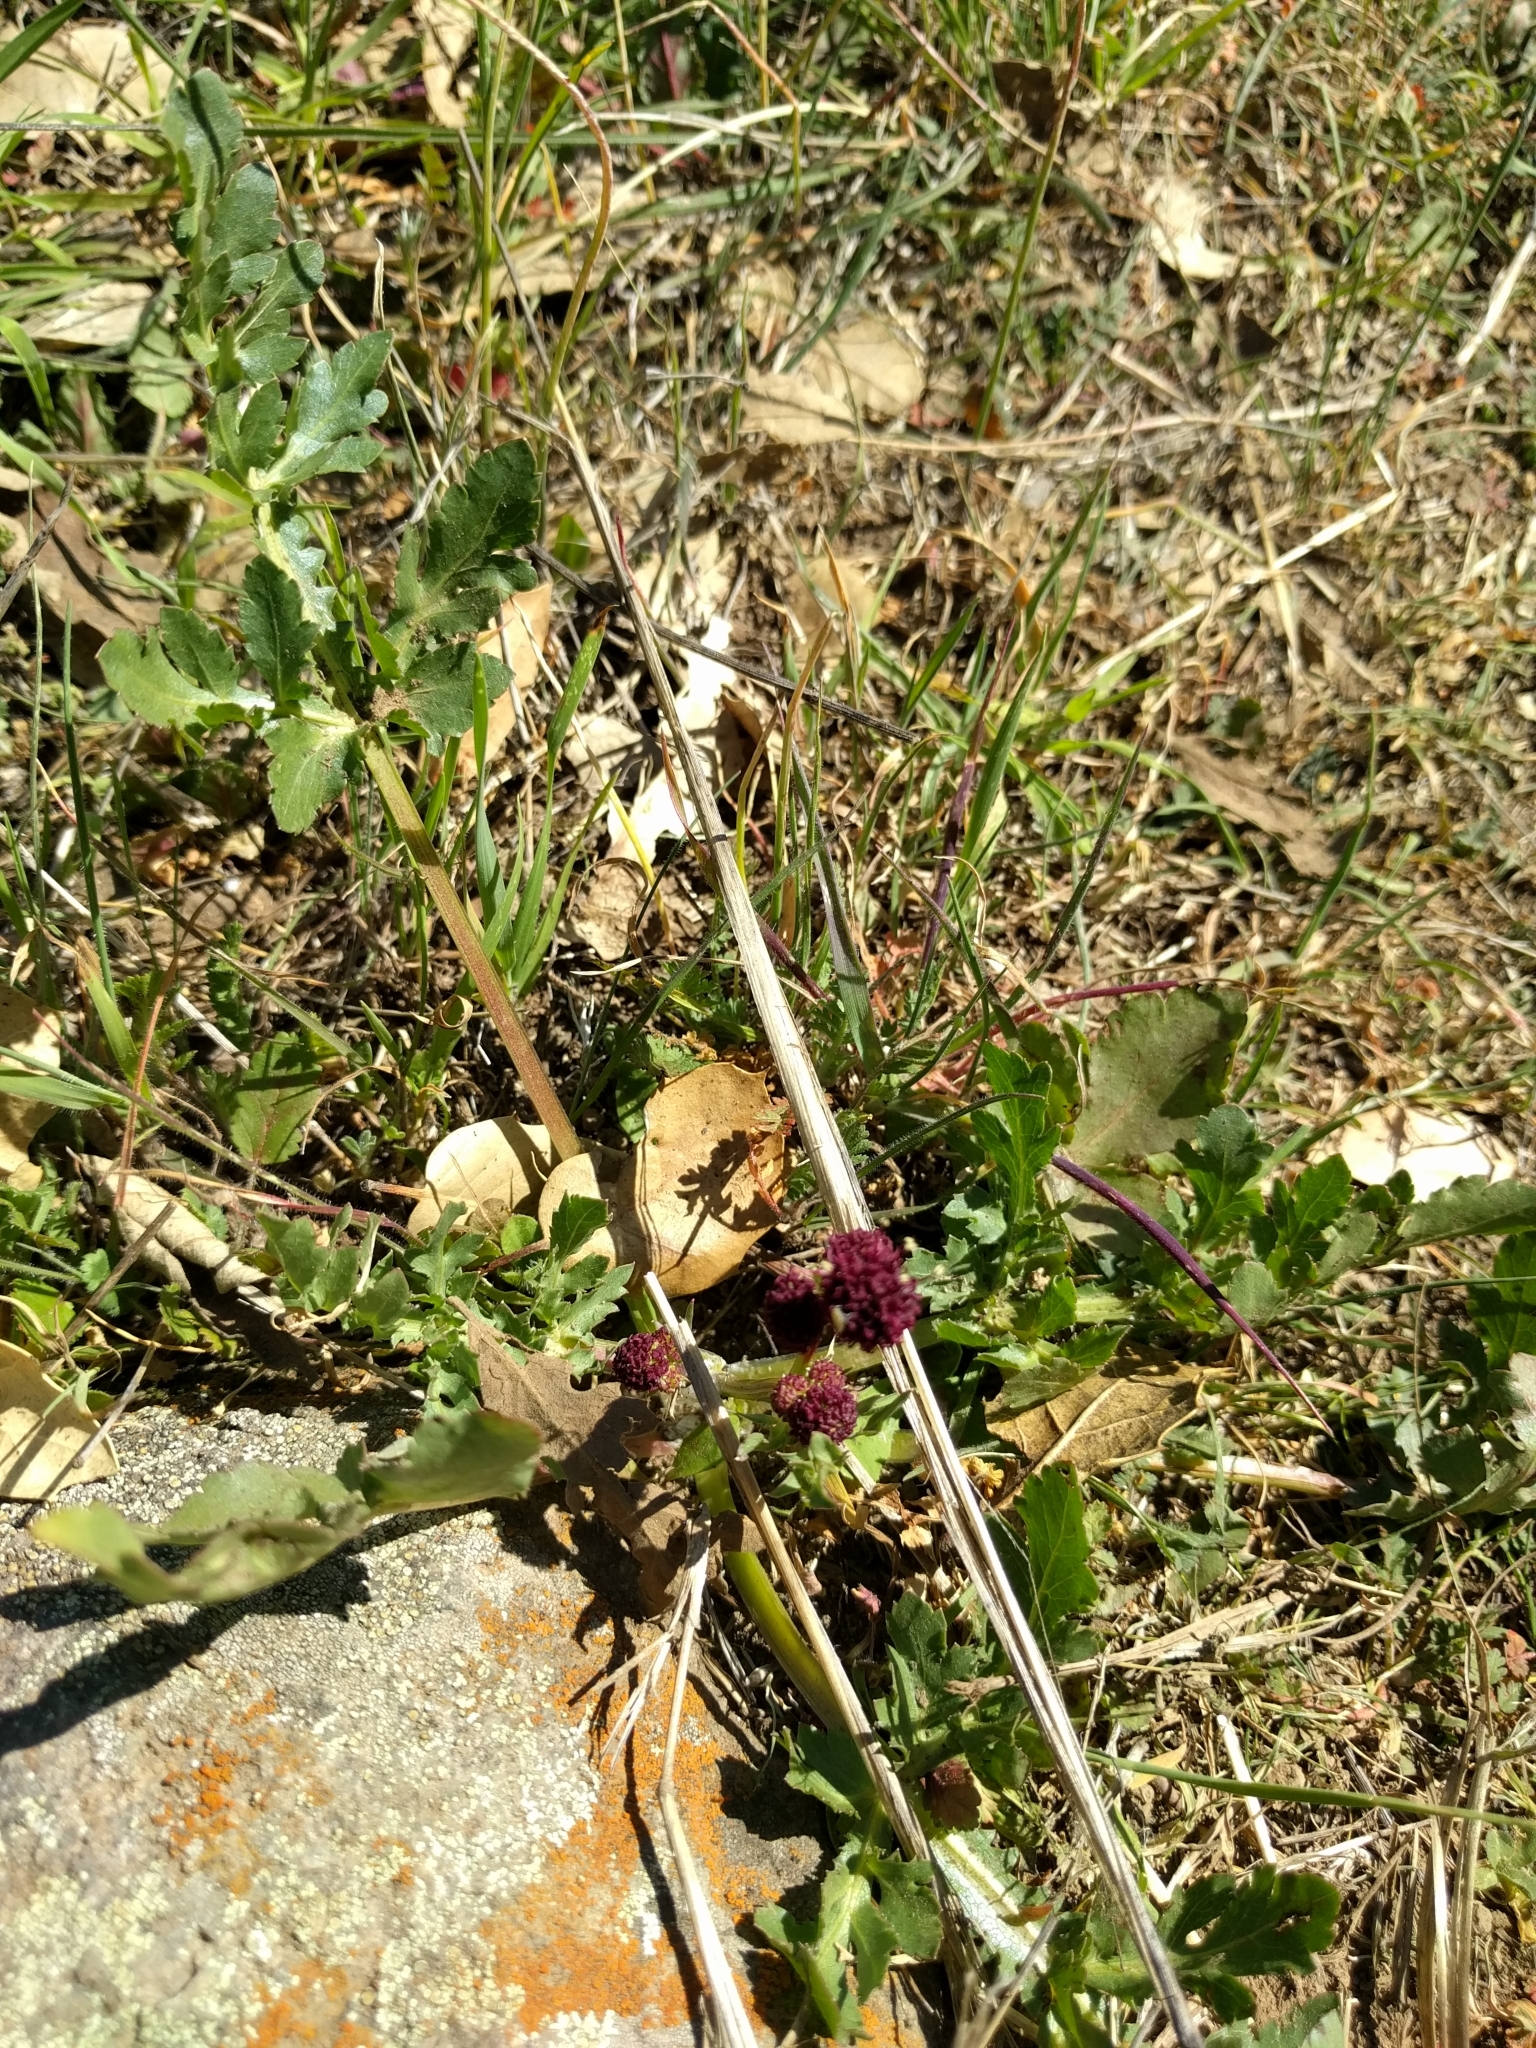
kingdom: Plantae
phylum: Tracheophyta
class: Magnoliopsida
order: Apiales
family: Apiaceae
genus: Sanicula
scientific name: Sanicula bipinnatifida
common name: Shoe-buttons
